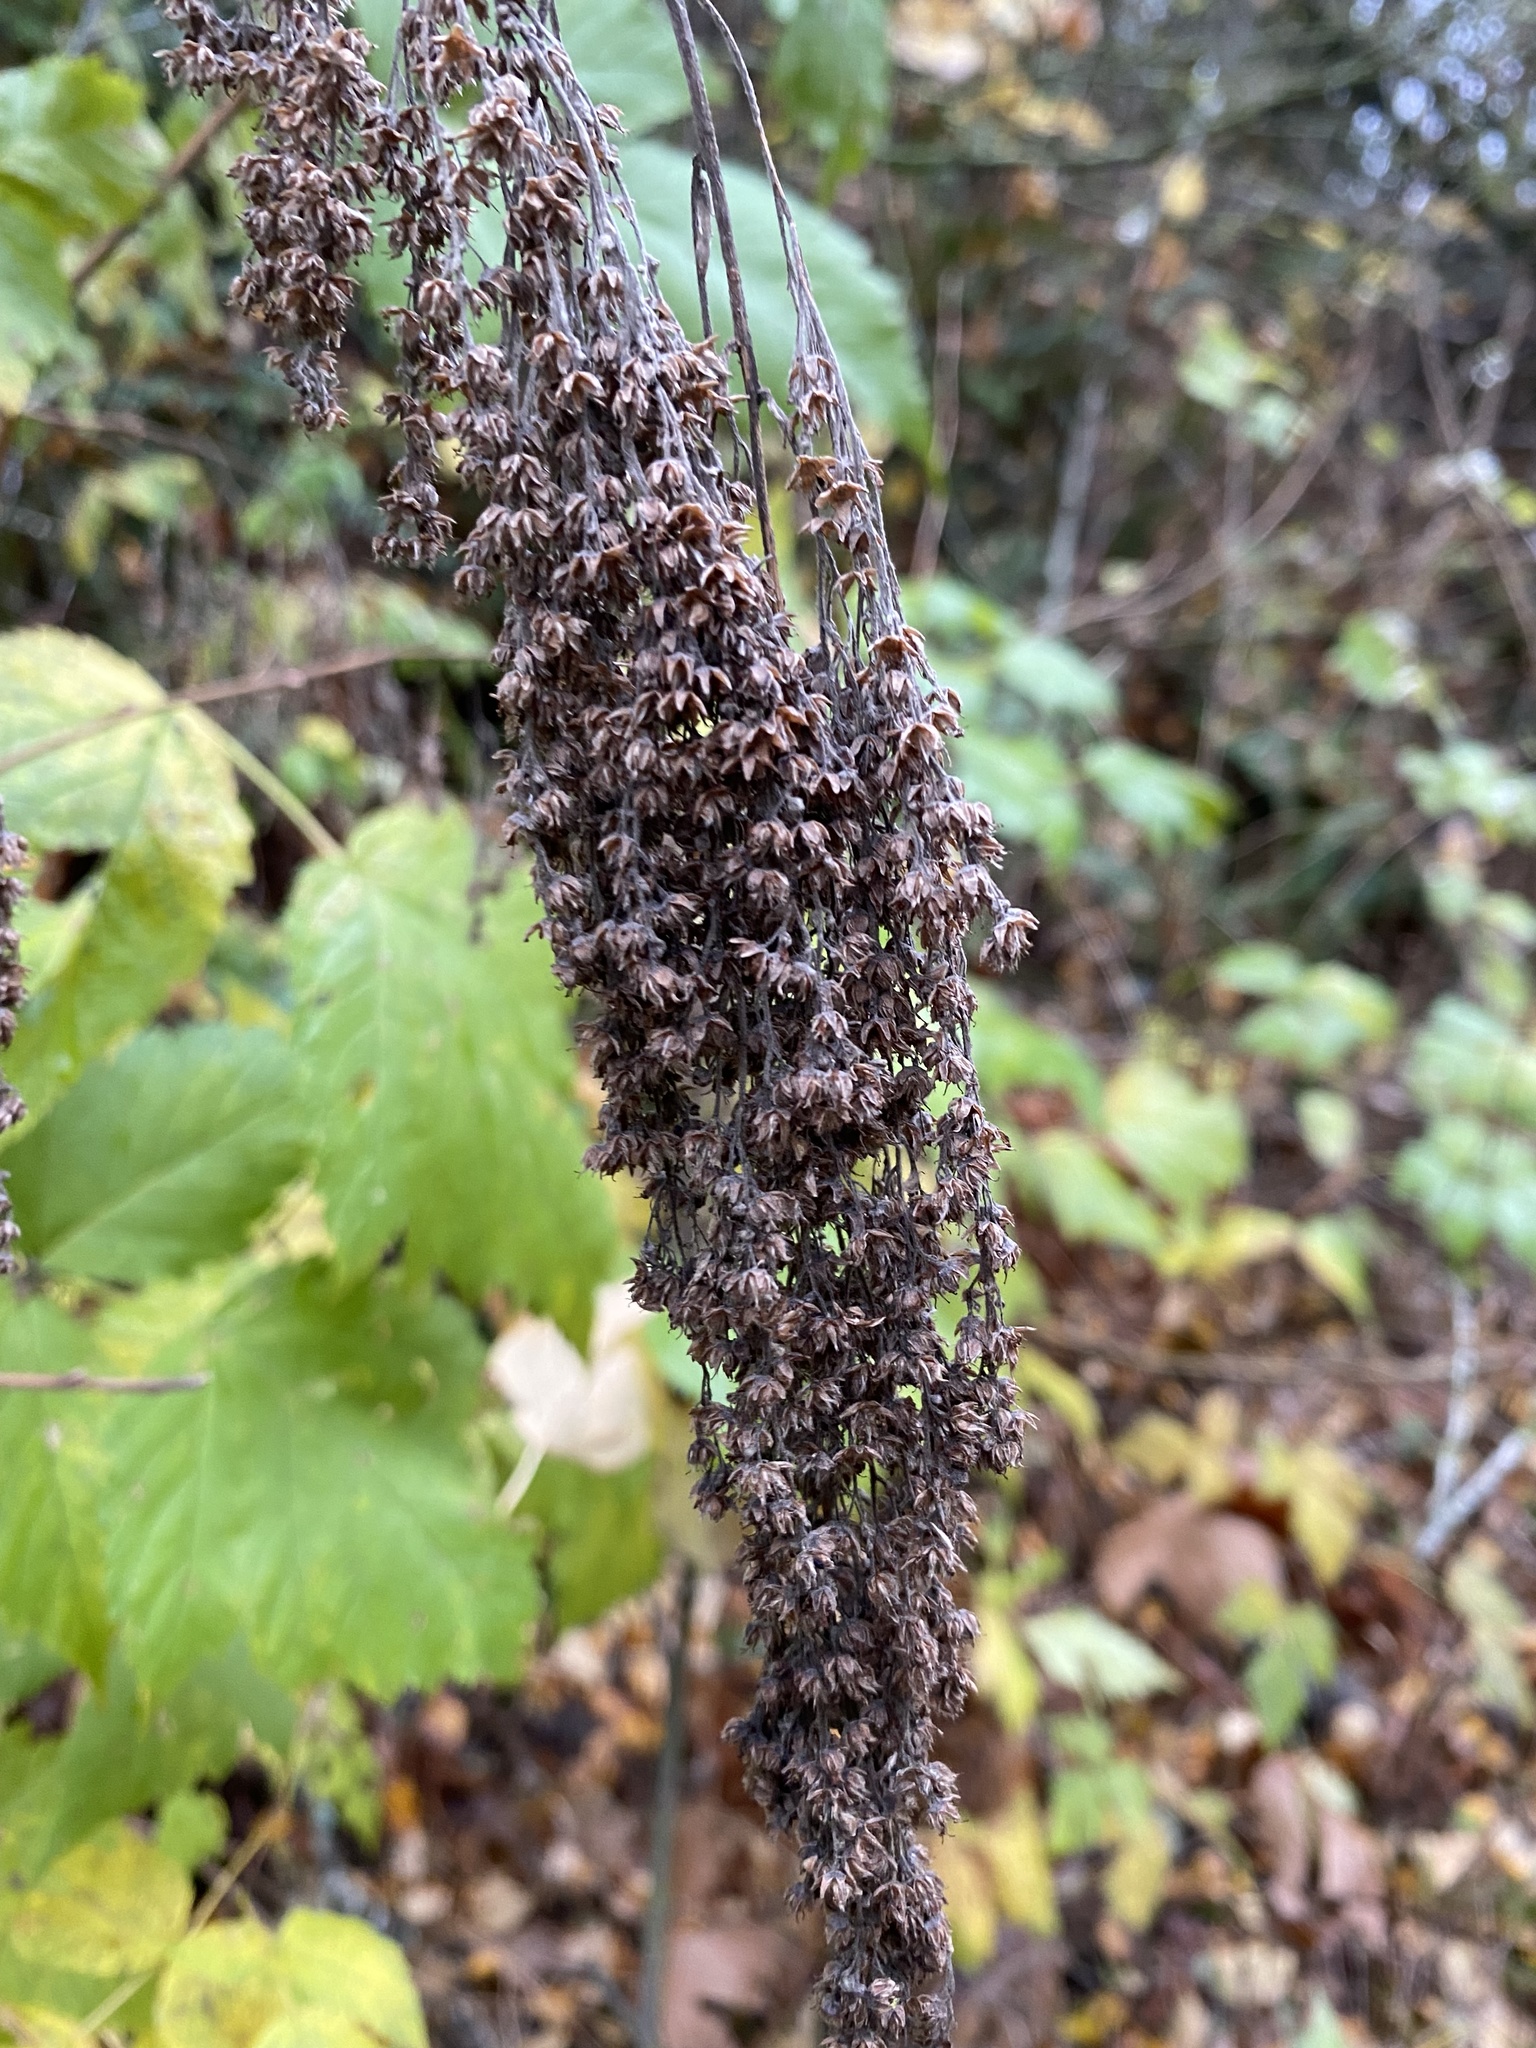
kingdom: Plantae
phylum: Tracheophyta
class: Magnoliopsida
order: Rosales
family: Rosaceae
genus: Holodiscus
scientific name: Holodiscus discolor
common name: Oceanspray
